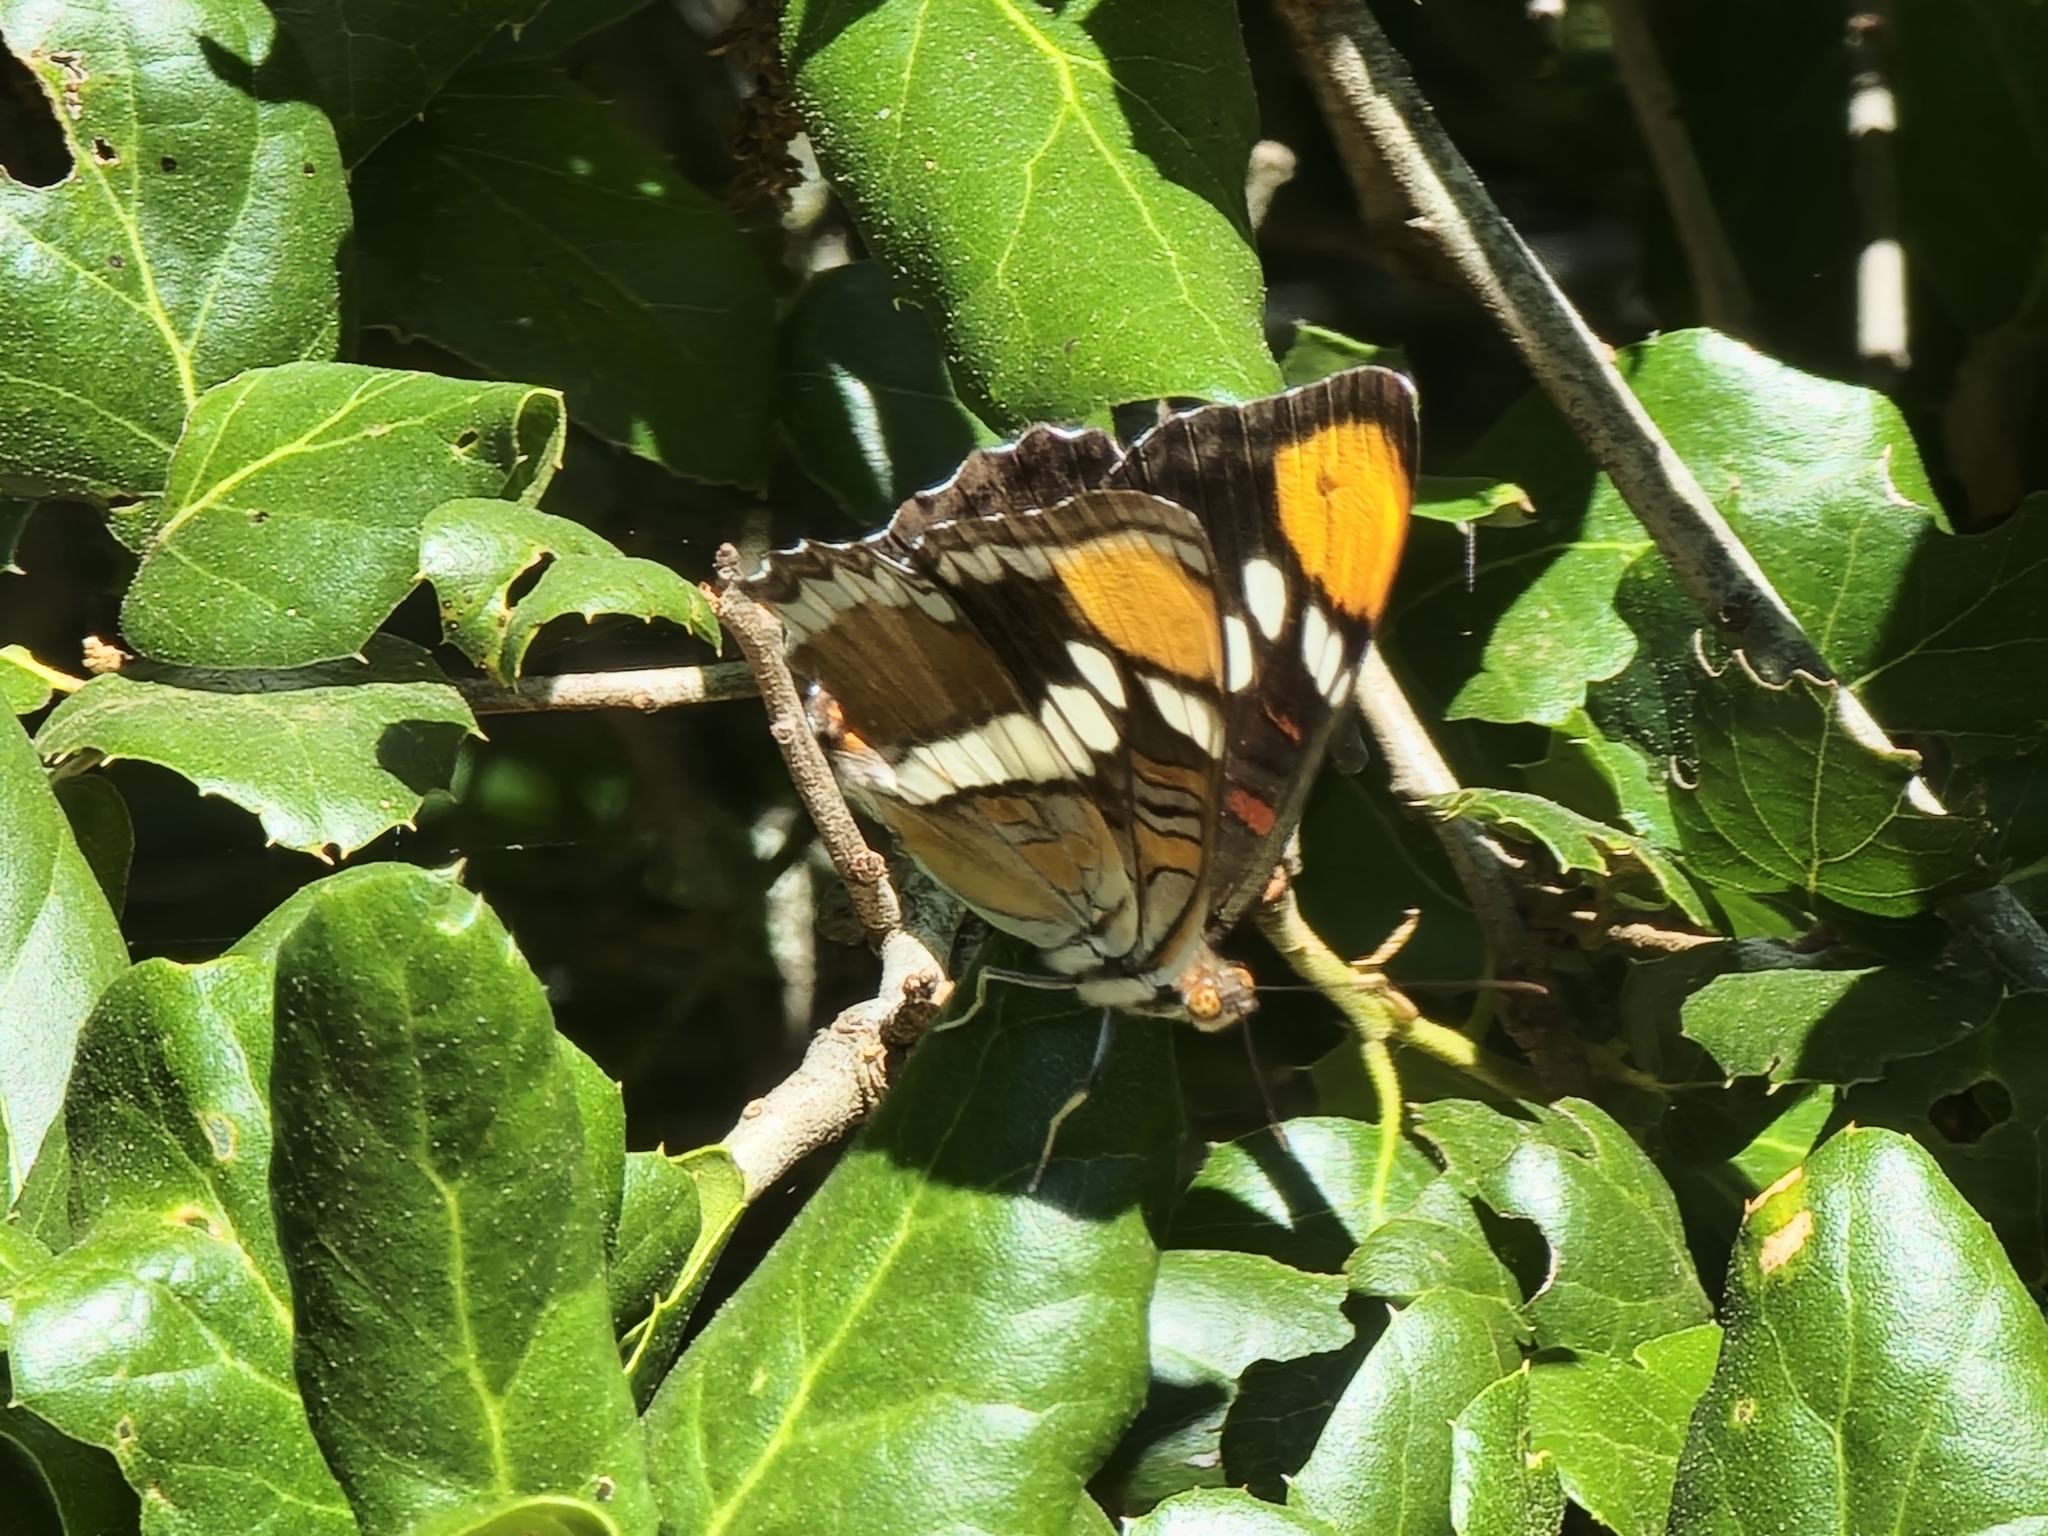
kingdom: Animalia
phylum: Arthropoda
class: Insecta
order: Lepidoptera
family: Nymphalidae
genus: Limenitis
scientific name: Limenitis bredowii
